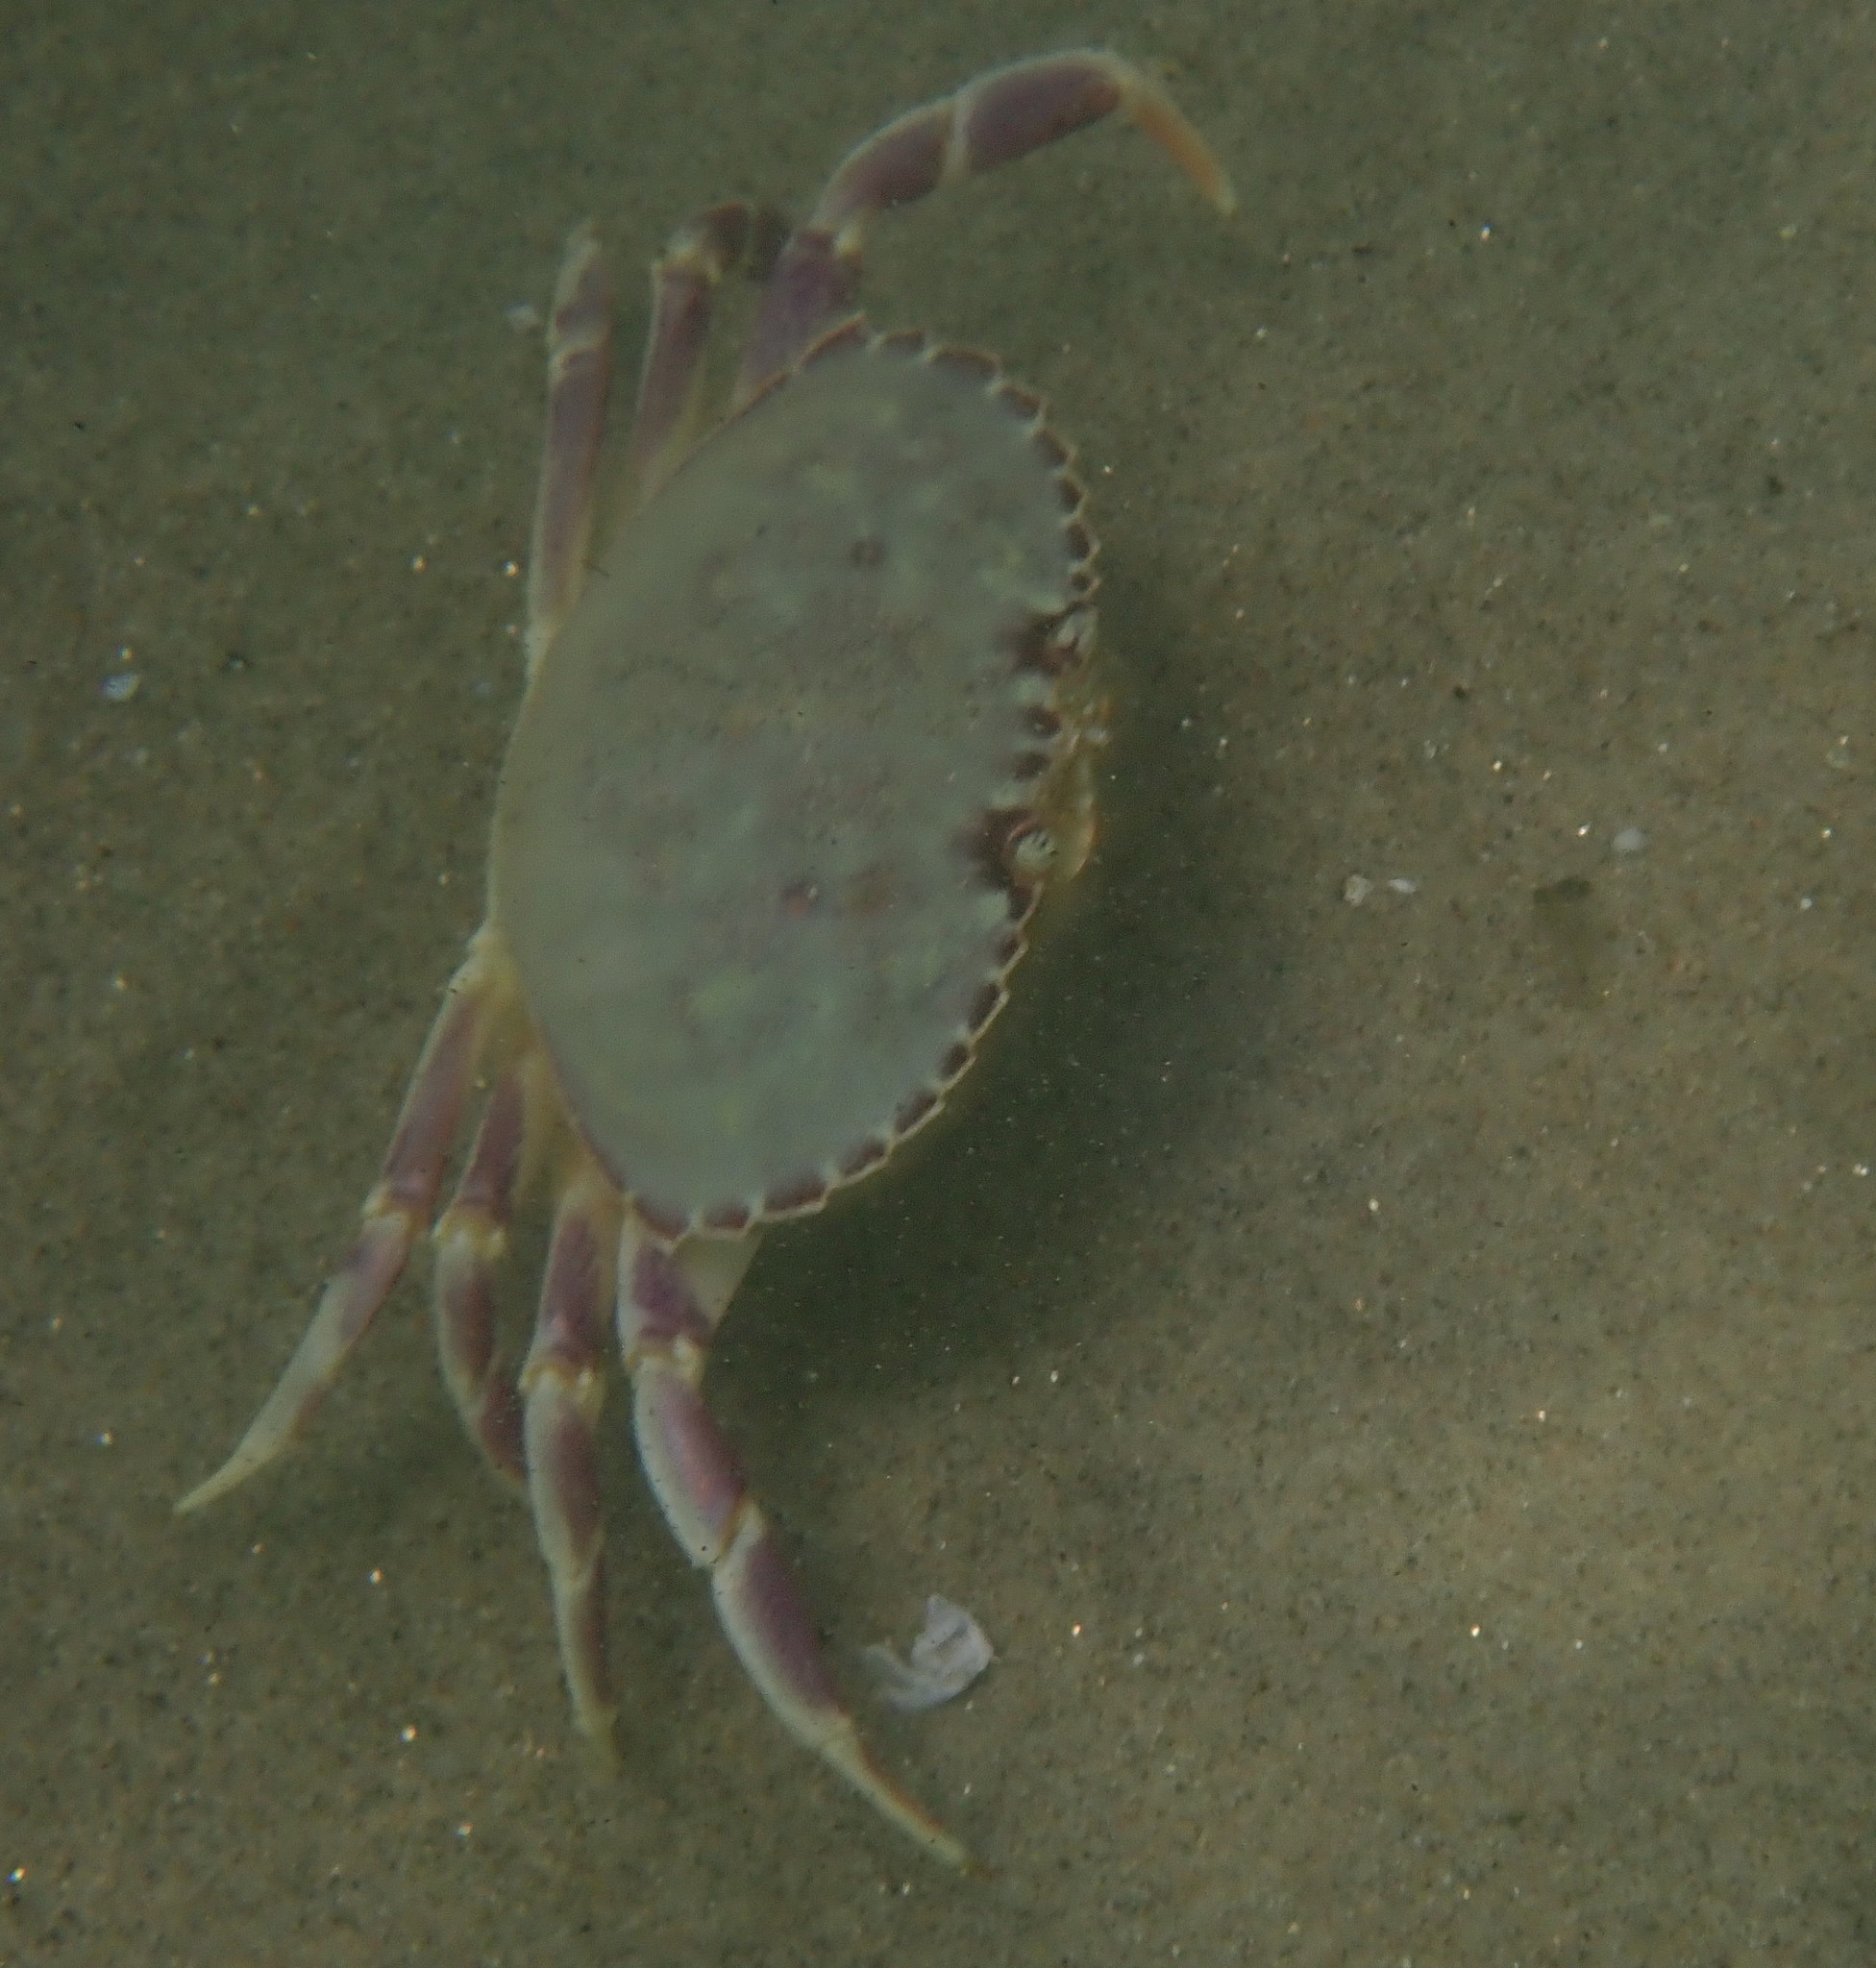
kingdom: Animalia
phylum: Arthropoda
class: Malacostraca
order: Decapoda
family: Cancridae
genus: Metacarcinus
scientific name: Metacarcinus gracilis
